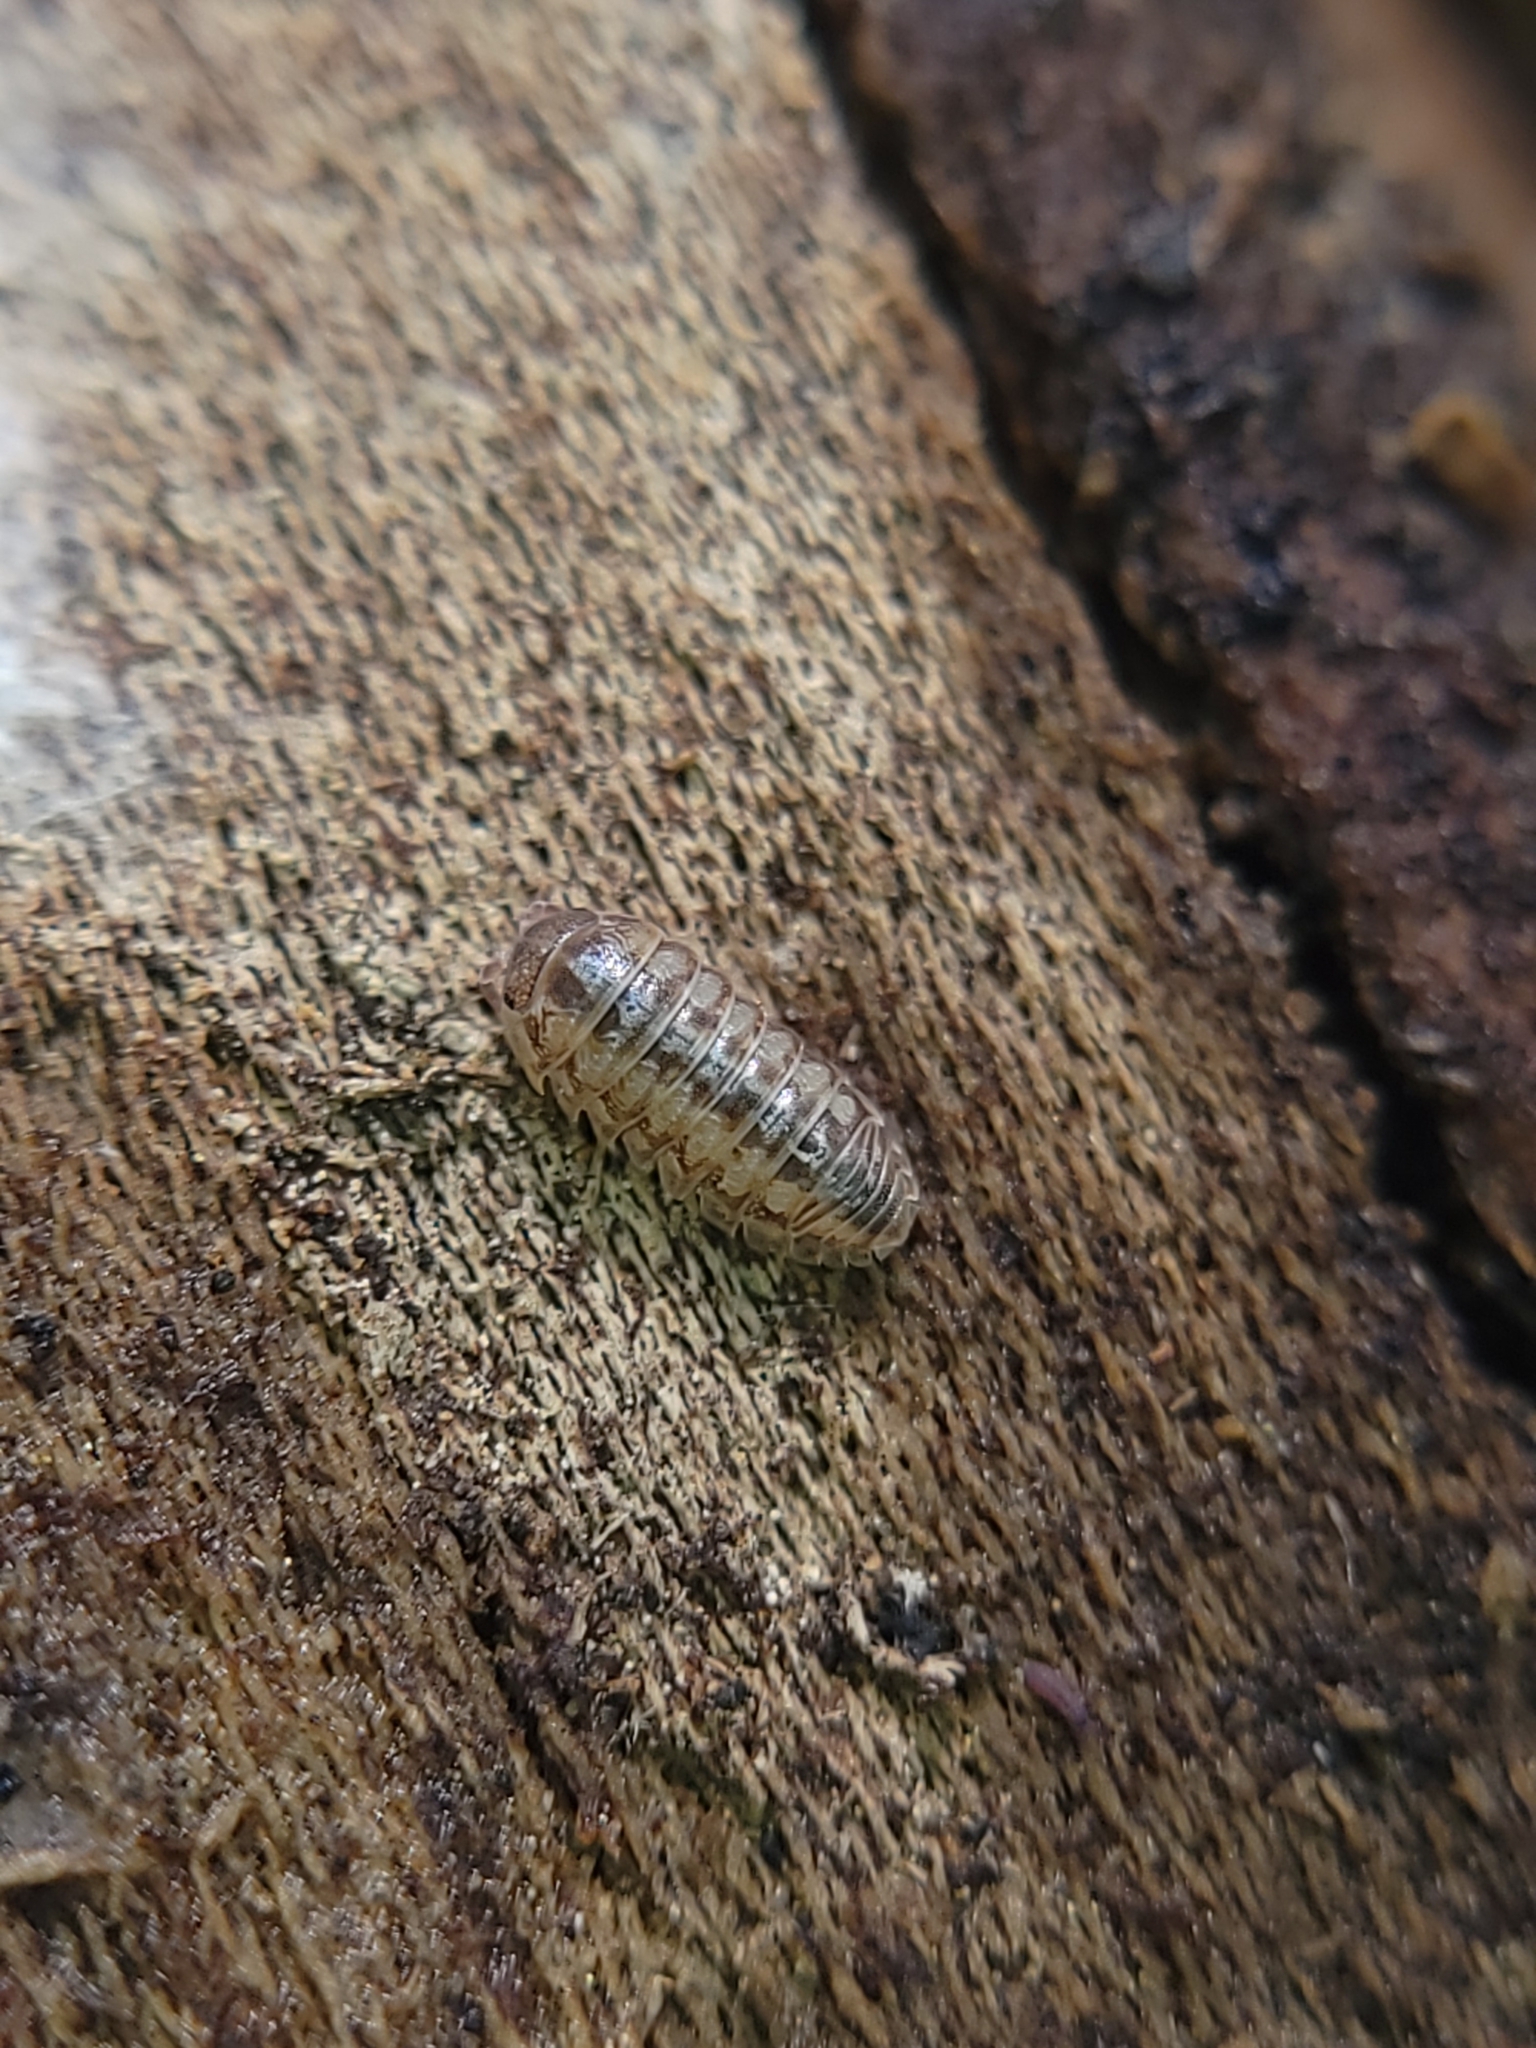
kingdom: Animalia
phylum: Arthropoda
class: Malacostraca
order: Isopoda
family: Armadillidiidae
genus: Armadillidium
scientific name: Armadillidium vulgare
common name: Common pill woodlouse
